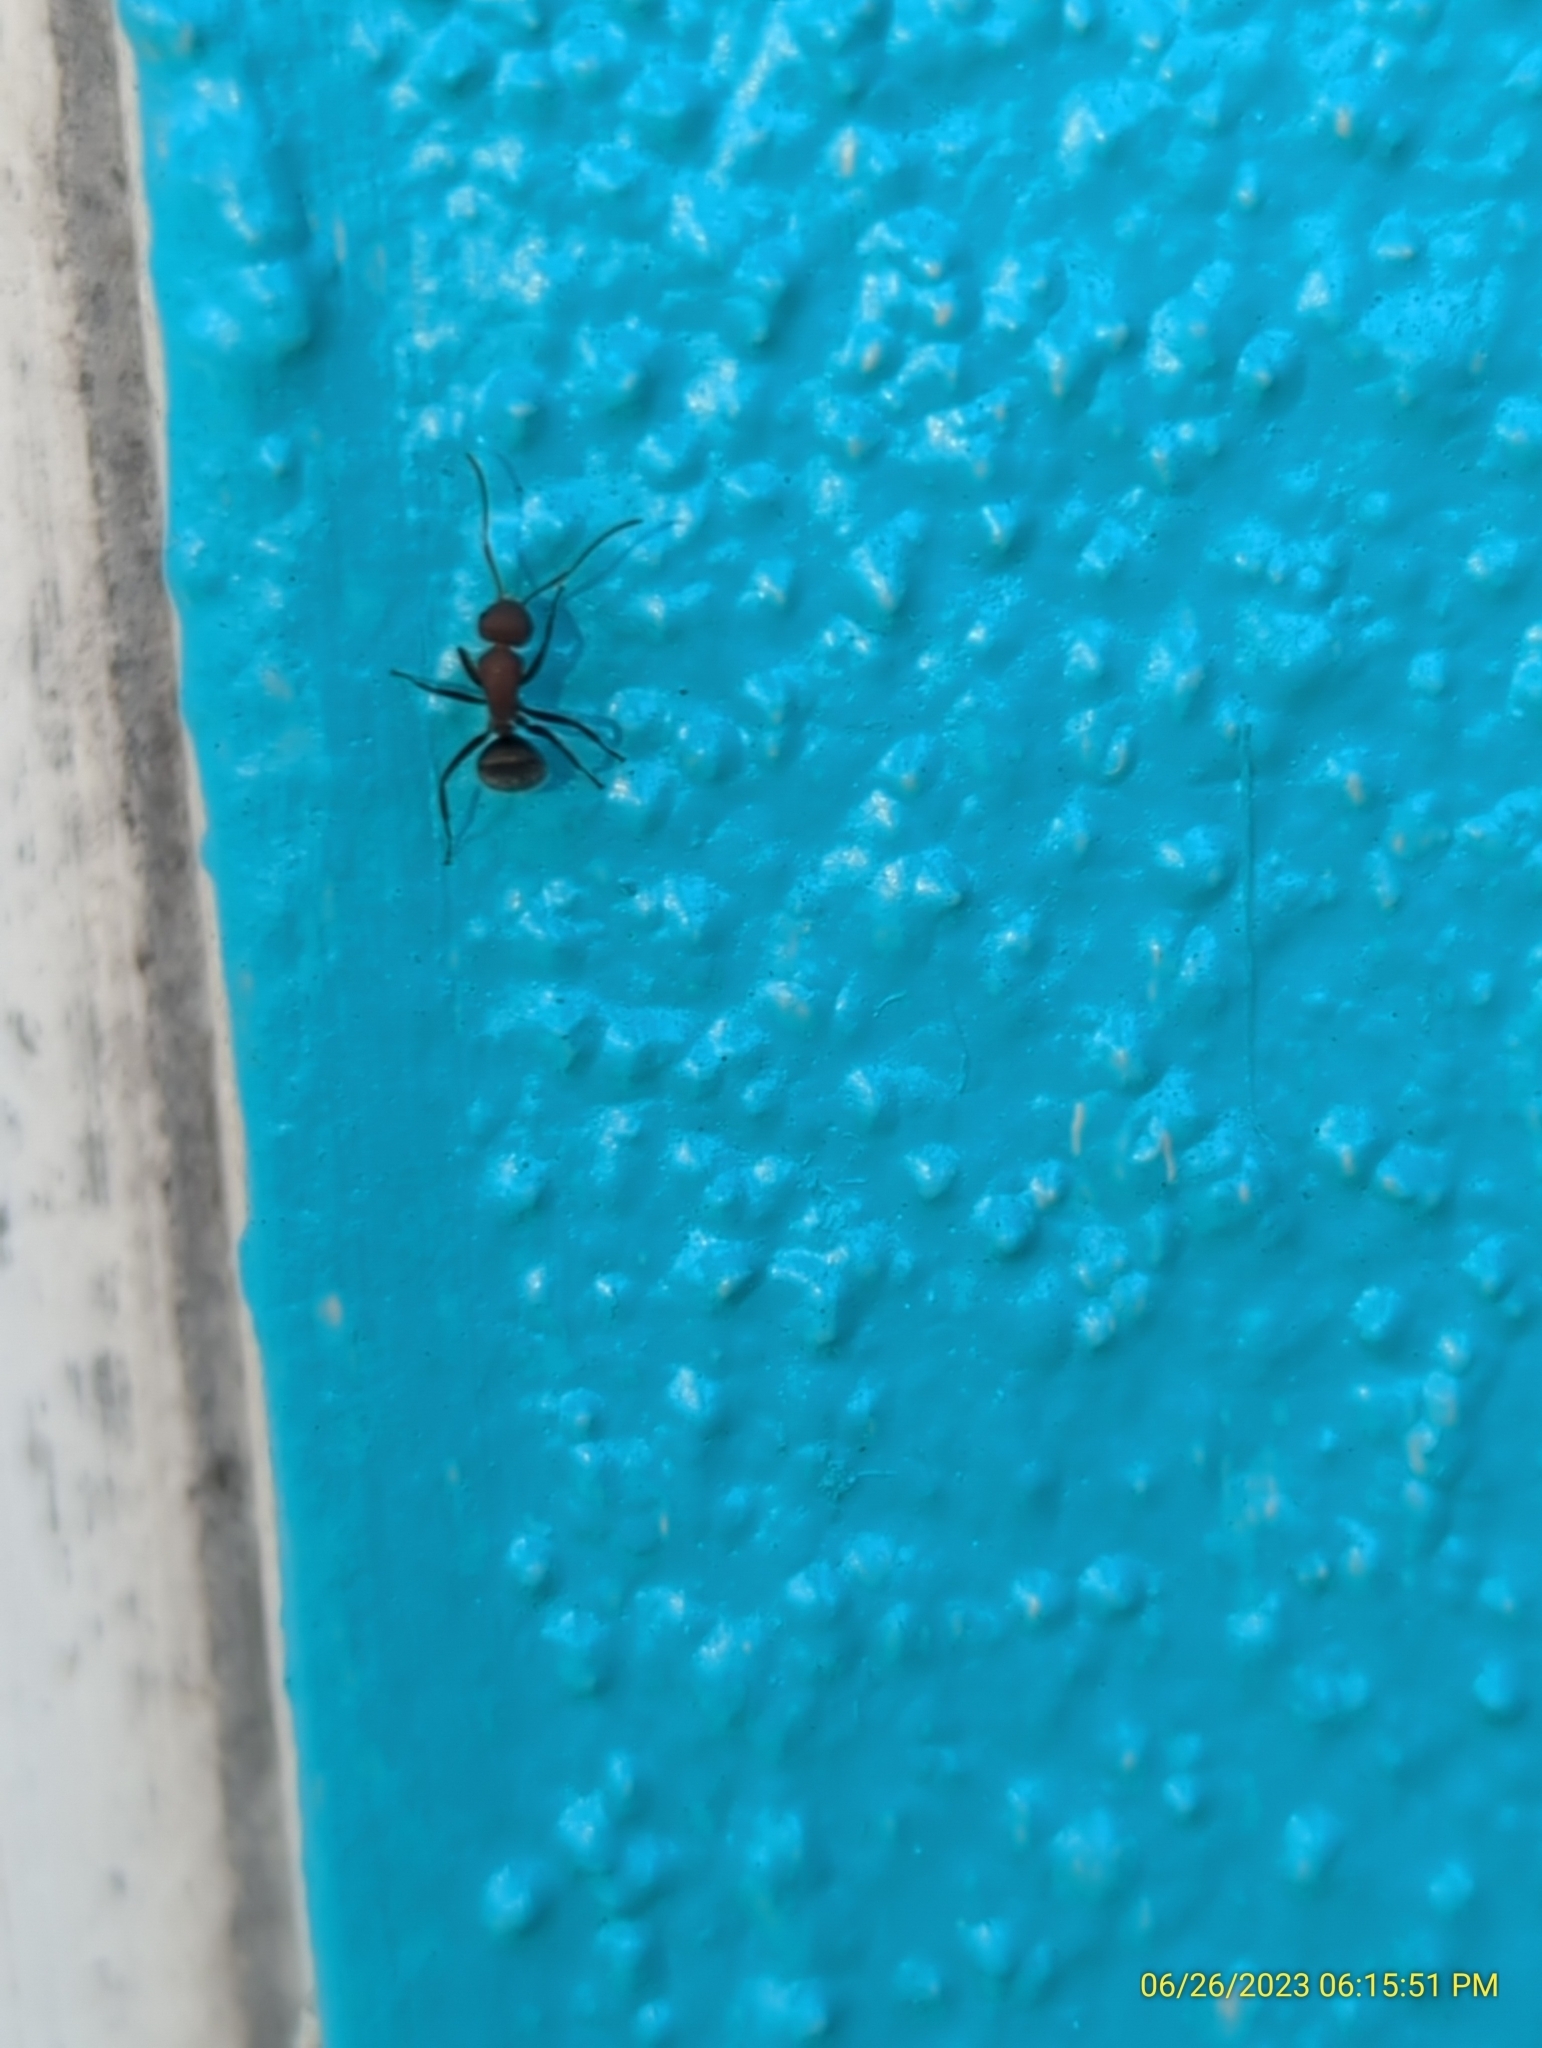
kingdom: Animalia
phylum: Arthropoda
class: Insecta
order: Hymenoptera
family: Formicidae
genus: Camponotus
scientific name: Camponotus planatus
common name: Compact carpenter ant
